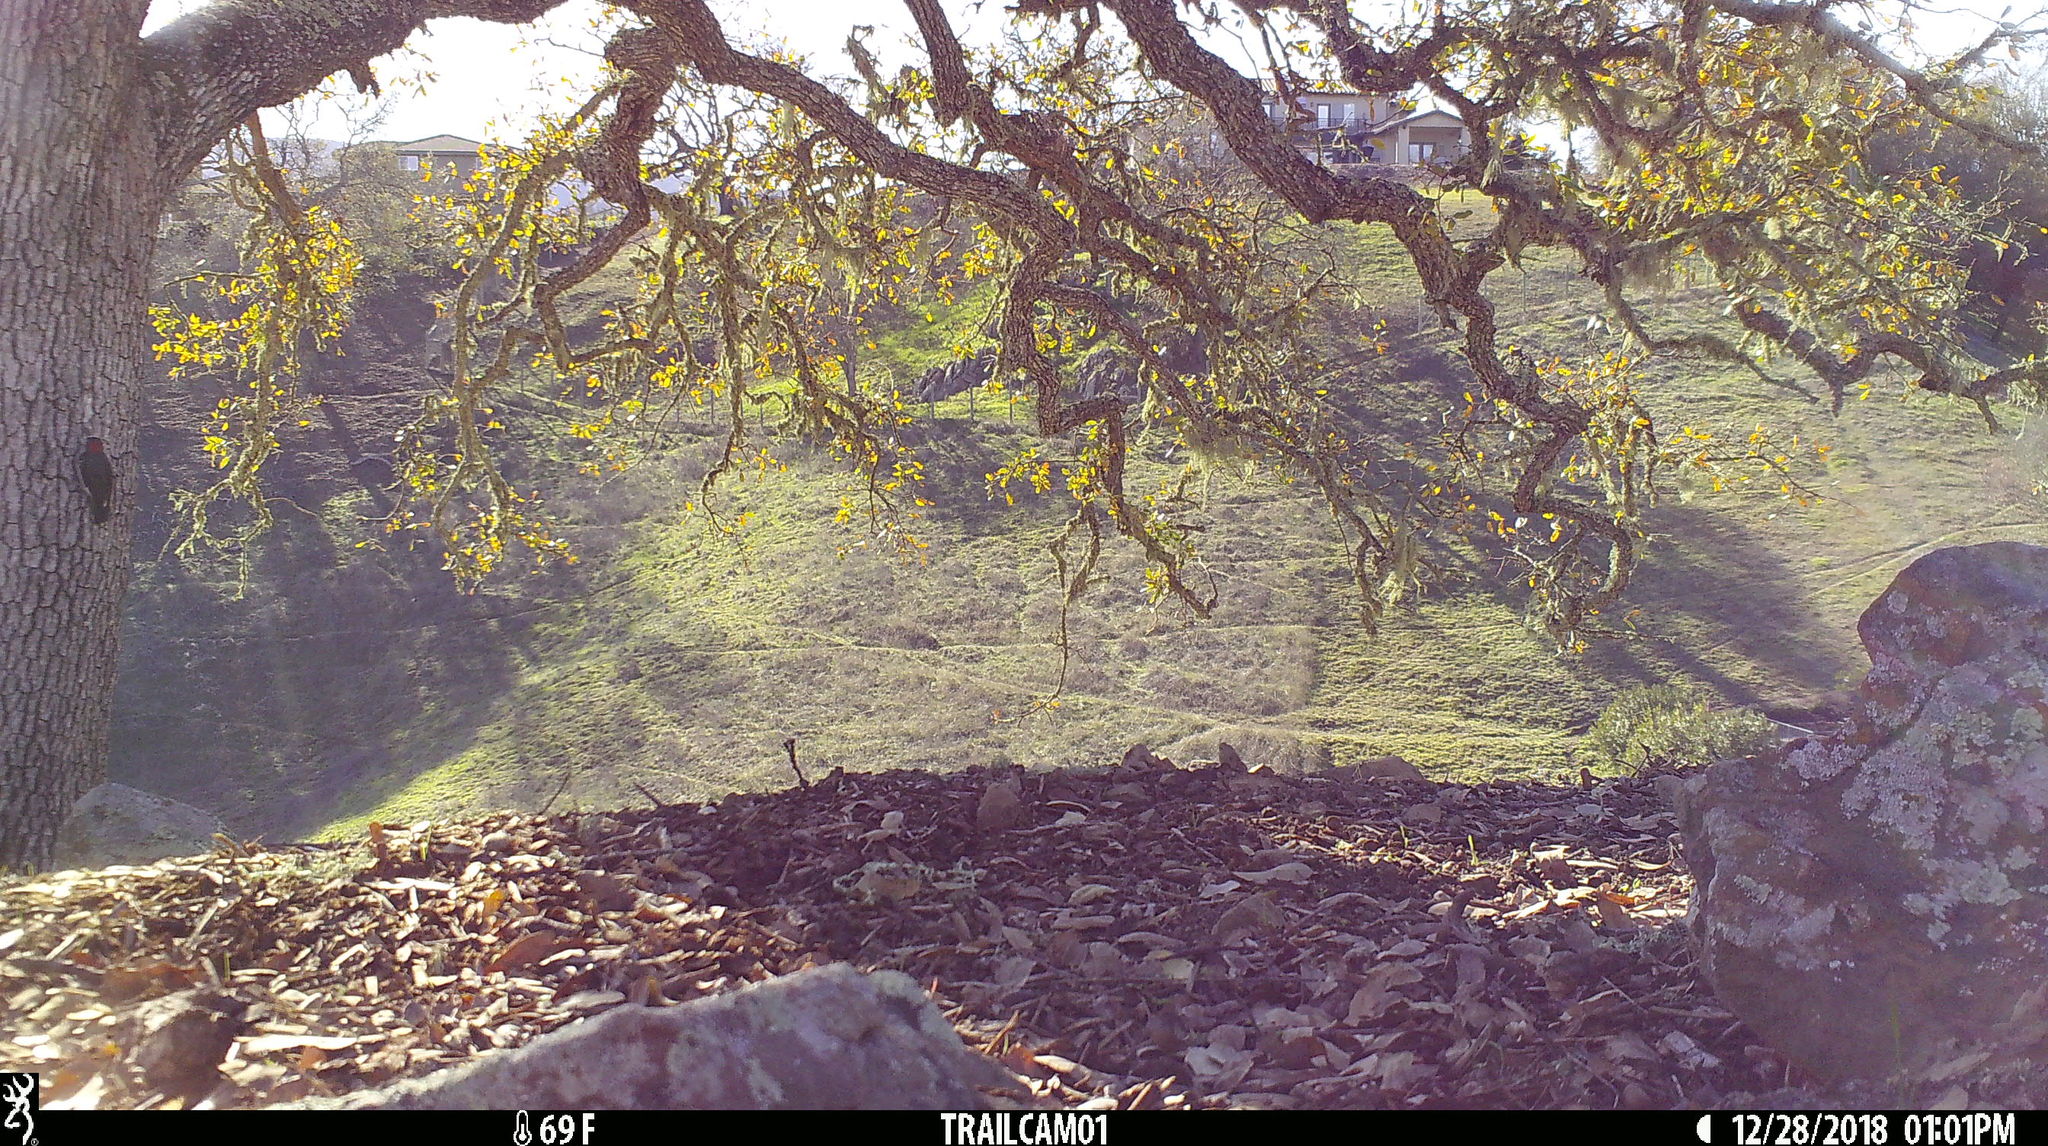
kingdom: Animalia
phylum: Chordata
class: Aves
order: Piciformes
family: Picidae
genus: Melanerpes
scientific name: Melanerpes formicivorus
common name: Acorn woodpecker
